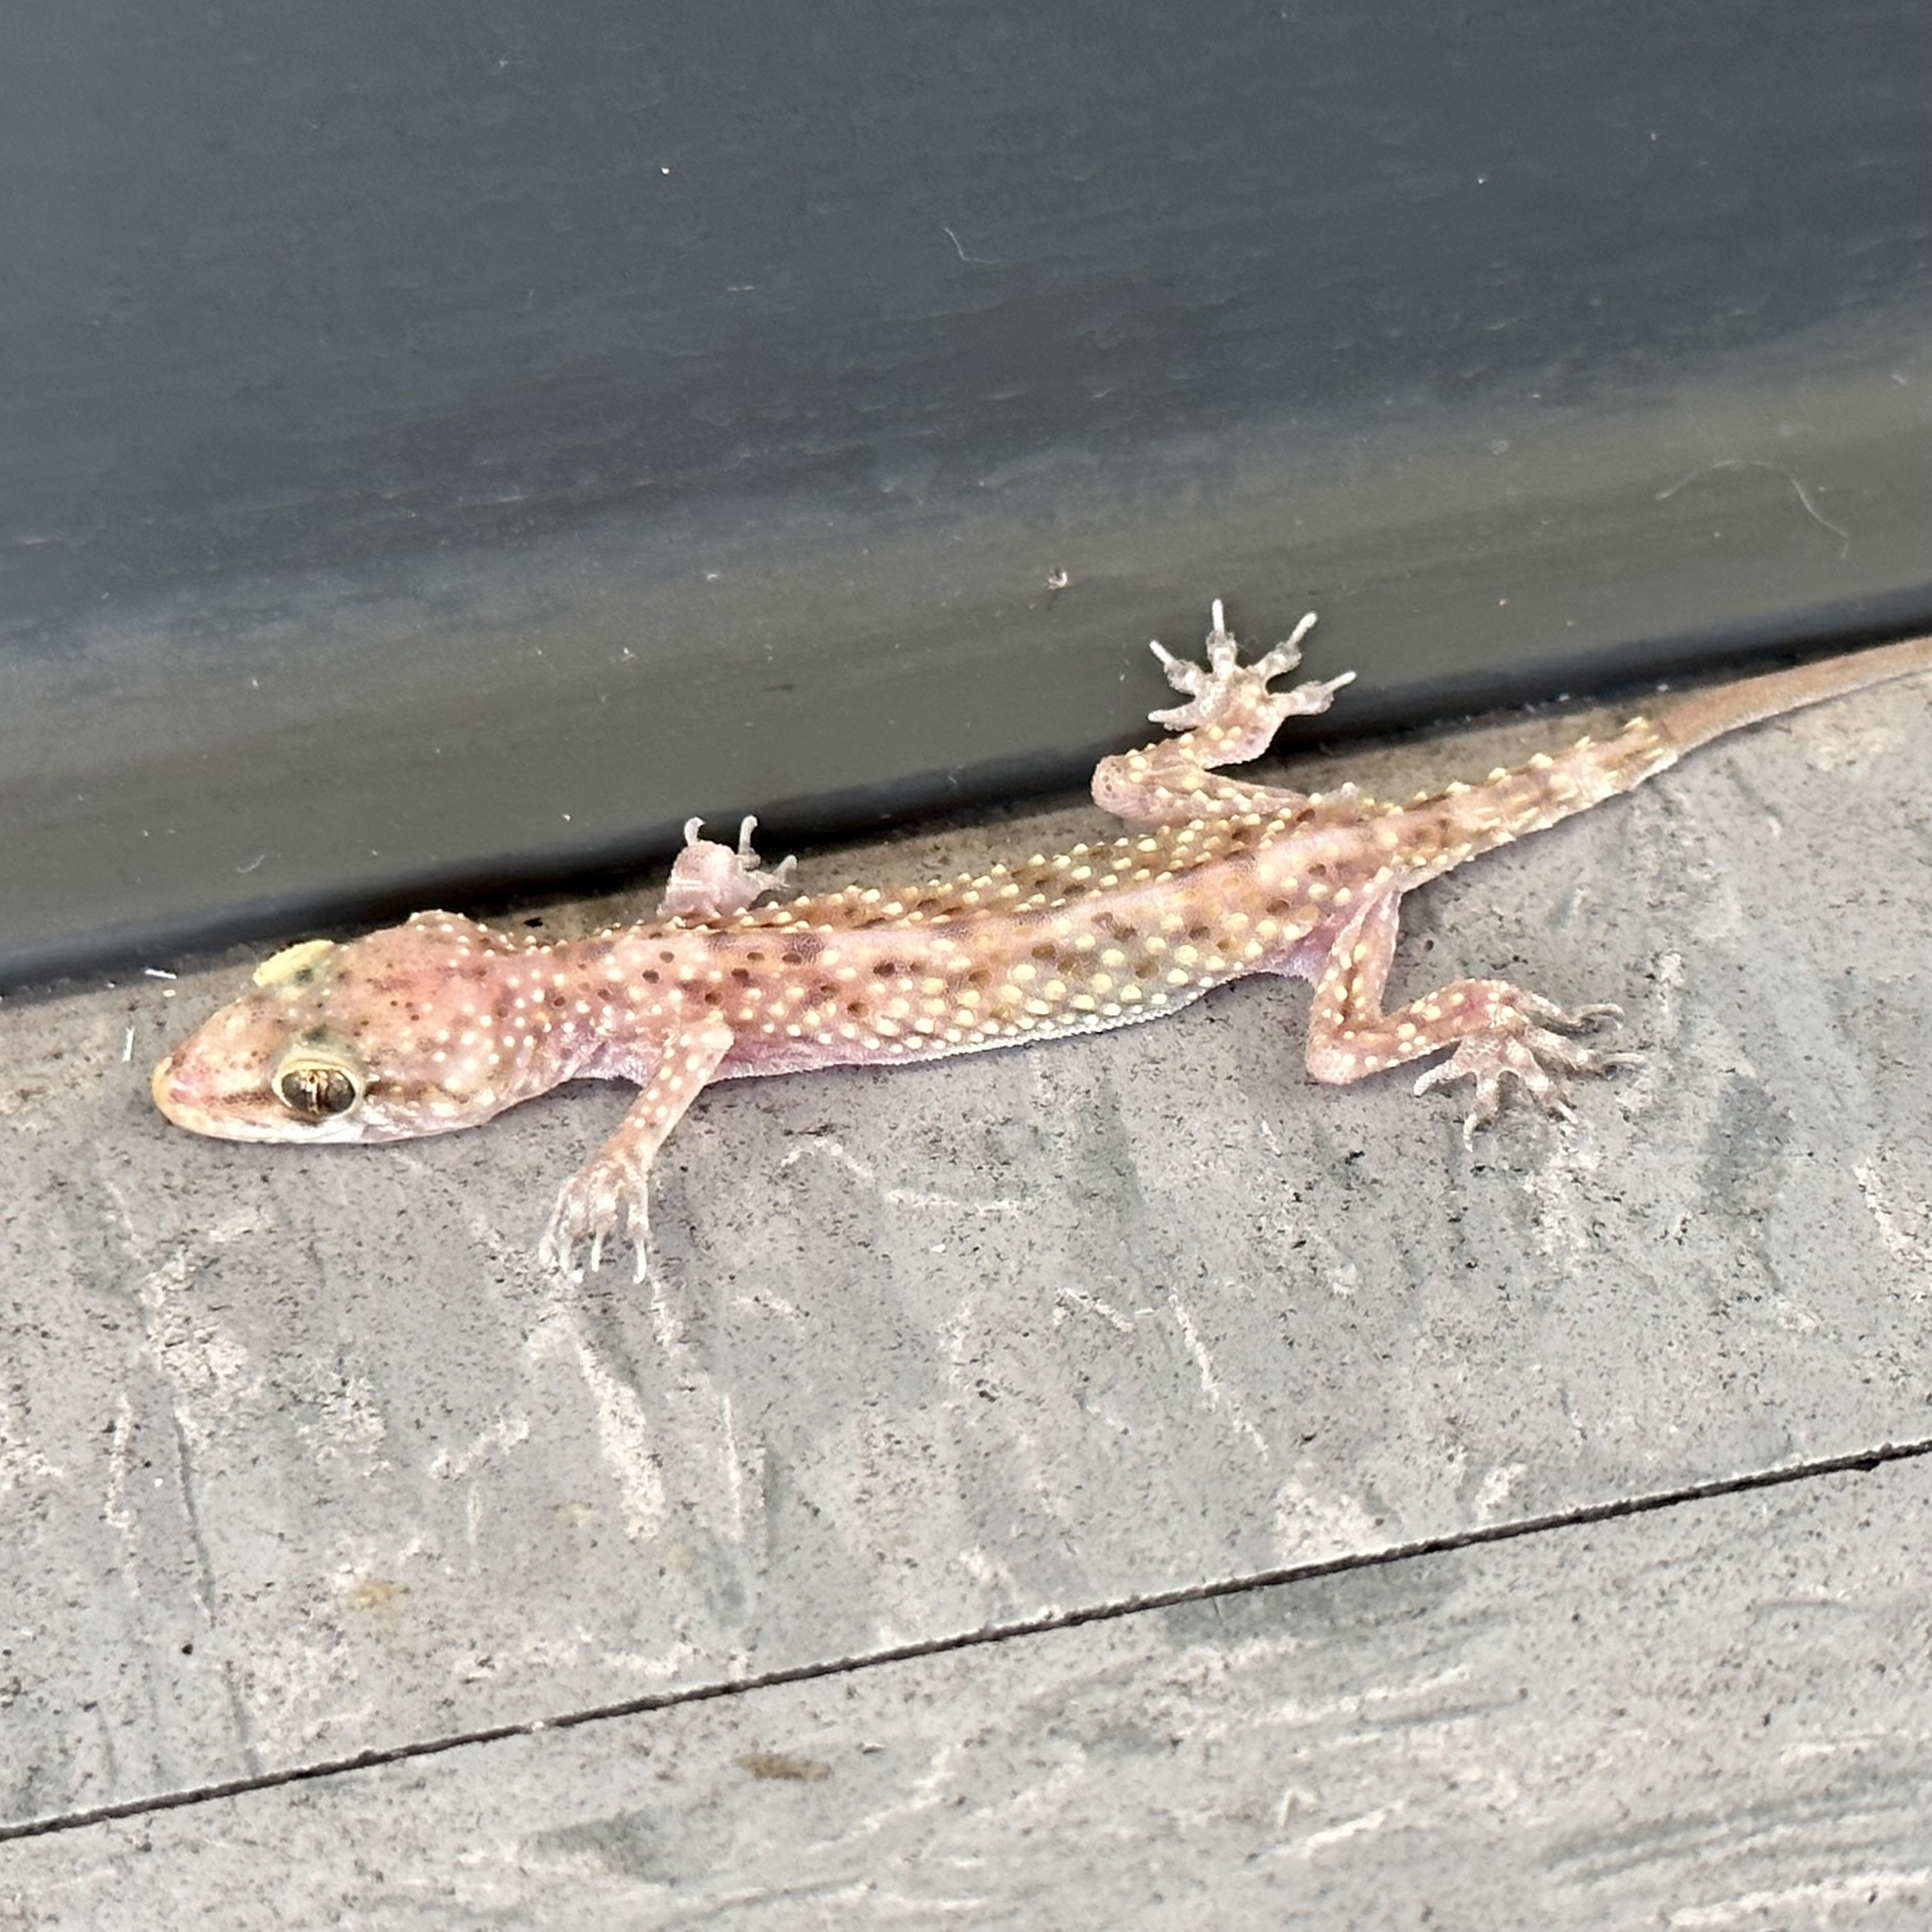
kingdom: Animalia
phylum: Chordata
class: Squamata
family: Gekkonidae
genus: Hemidactylus
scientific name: Hemidactylus turcicus
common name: Turkish gecko
